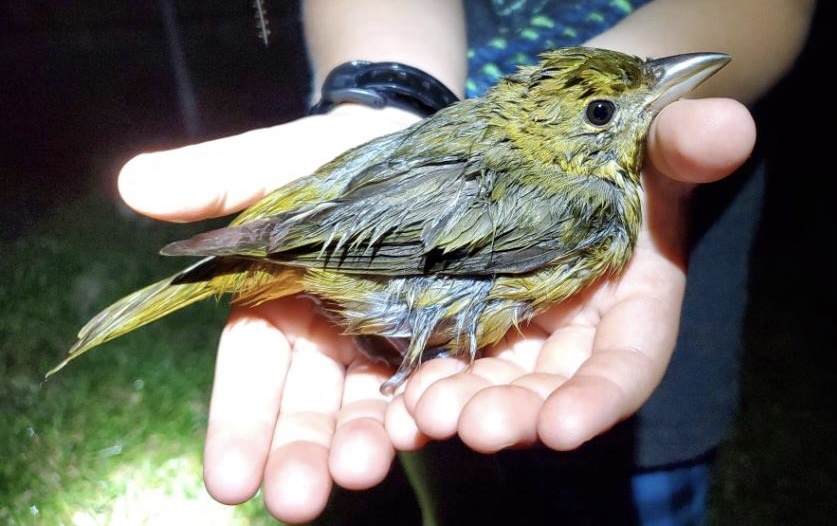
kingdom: Animalia
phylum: Chordata
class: Aves
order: Passeriformes
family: Cardinalidae
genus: Piranga
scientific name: Piranga rubra
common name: Summer tanager
